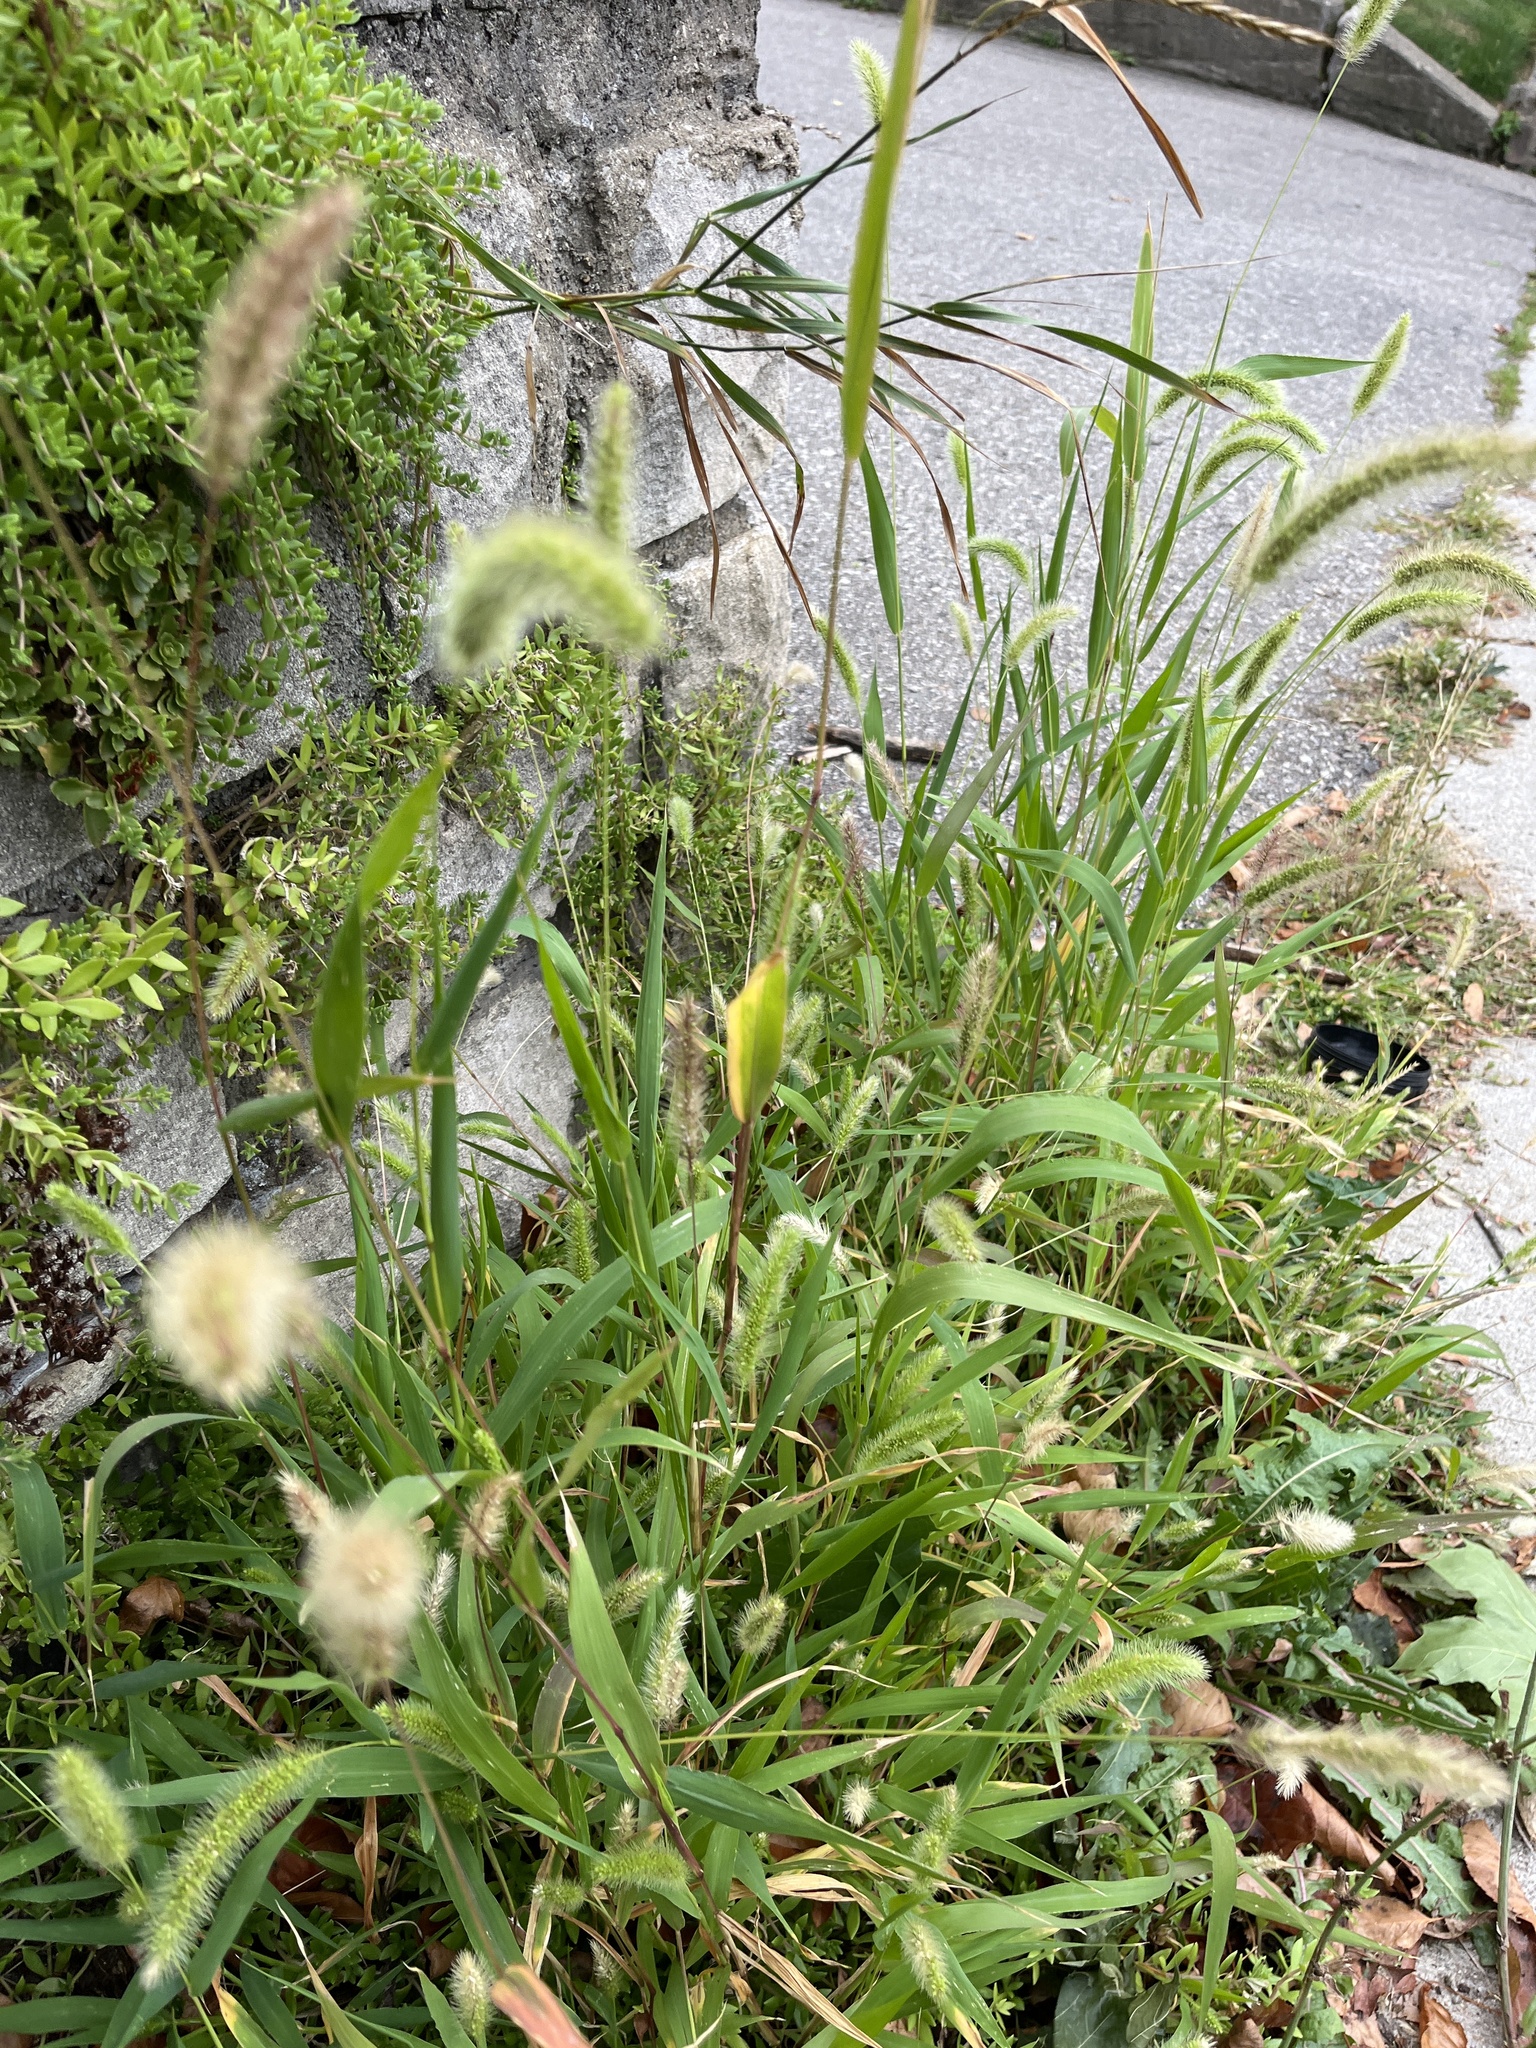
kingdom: Plantae
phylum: Tracheophyta
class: Liliopsida
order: Poales
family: Poaceae
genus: Setaria
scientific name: Setaria viridis
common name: Green bristlegrass
